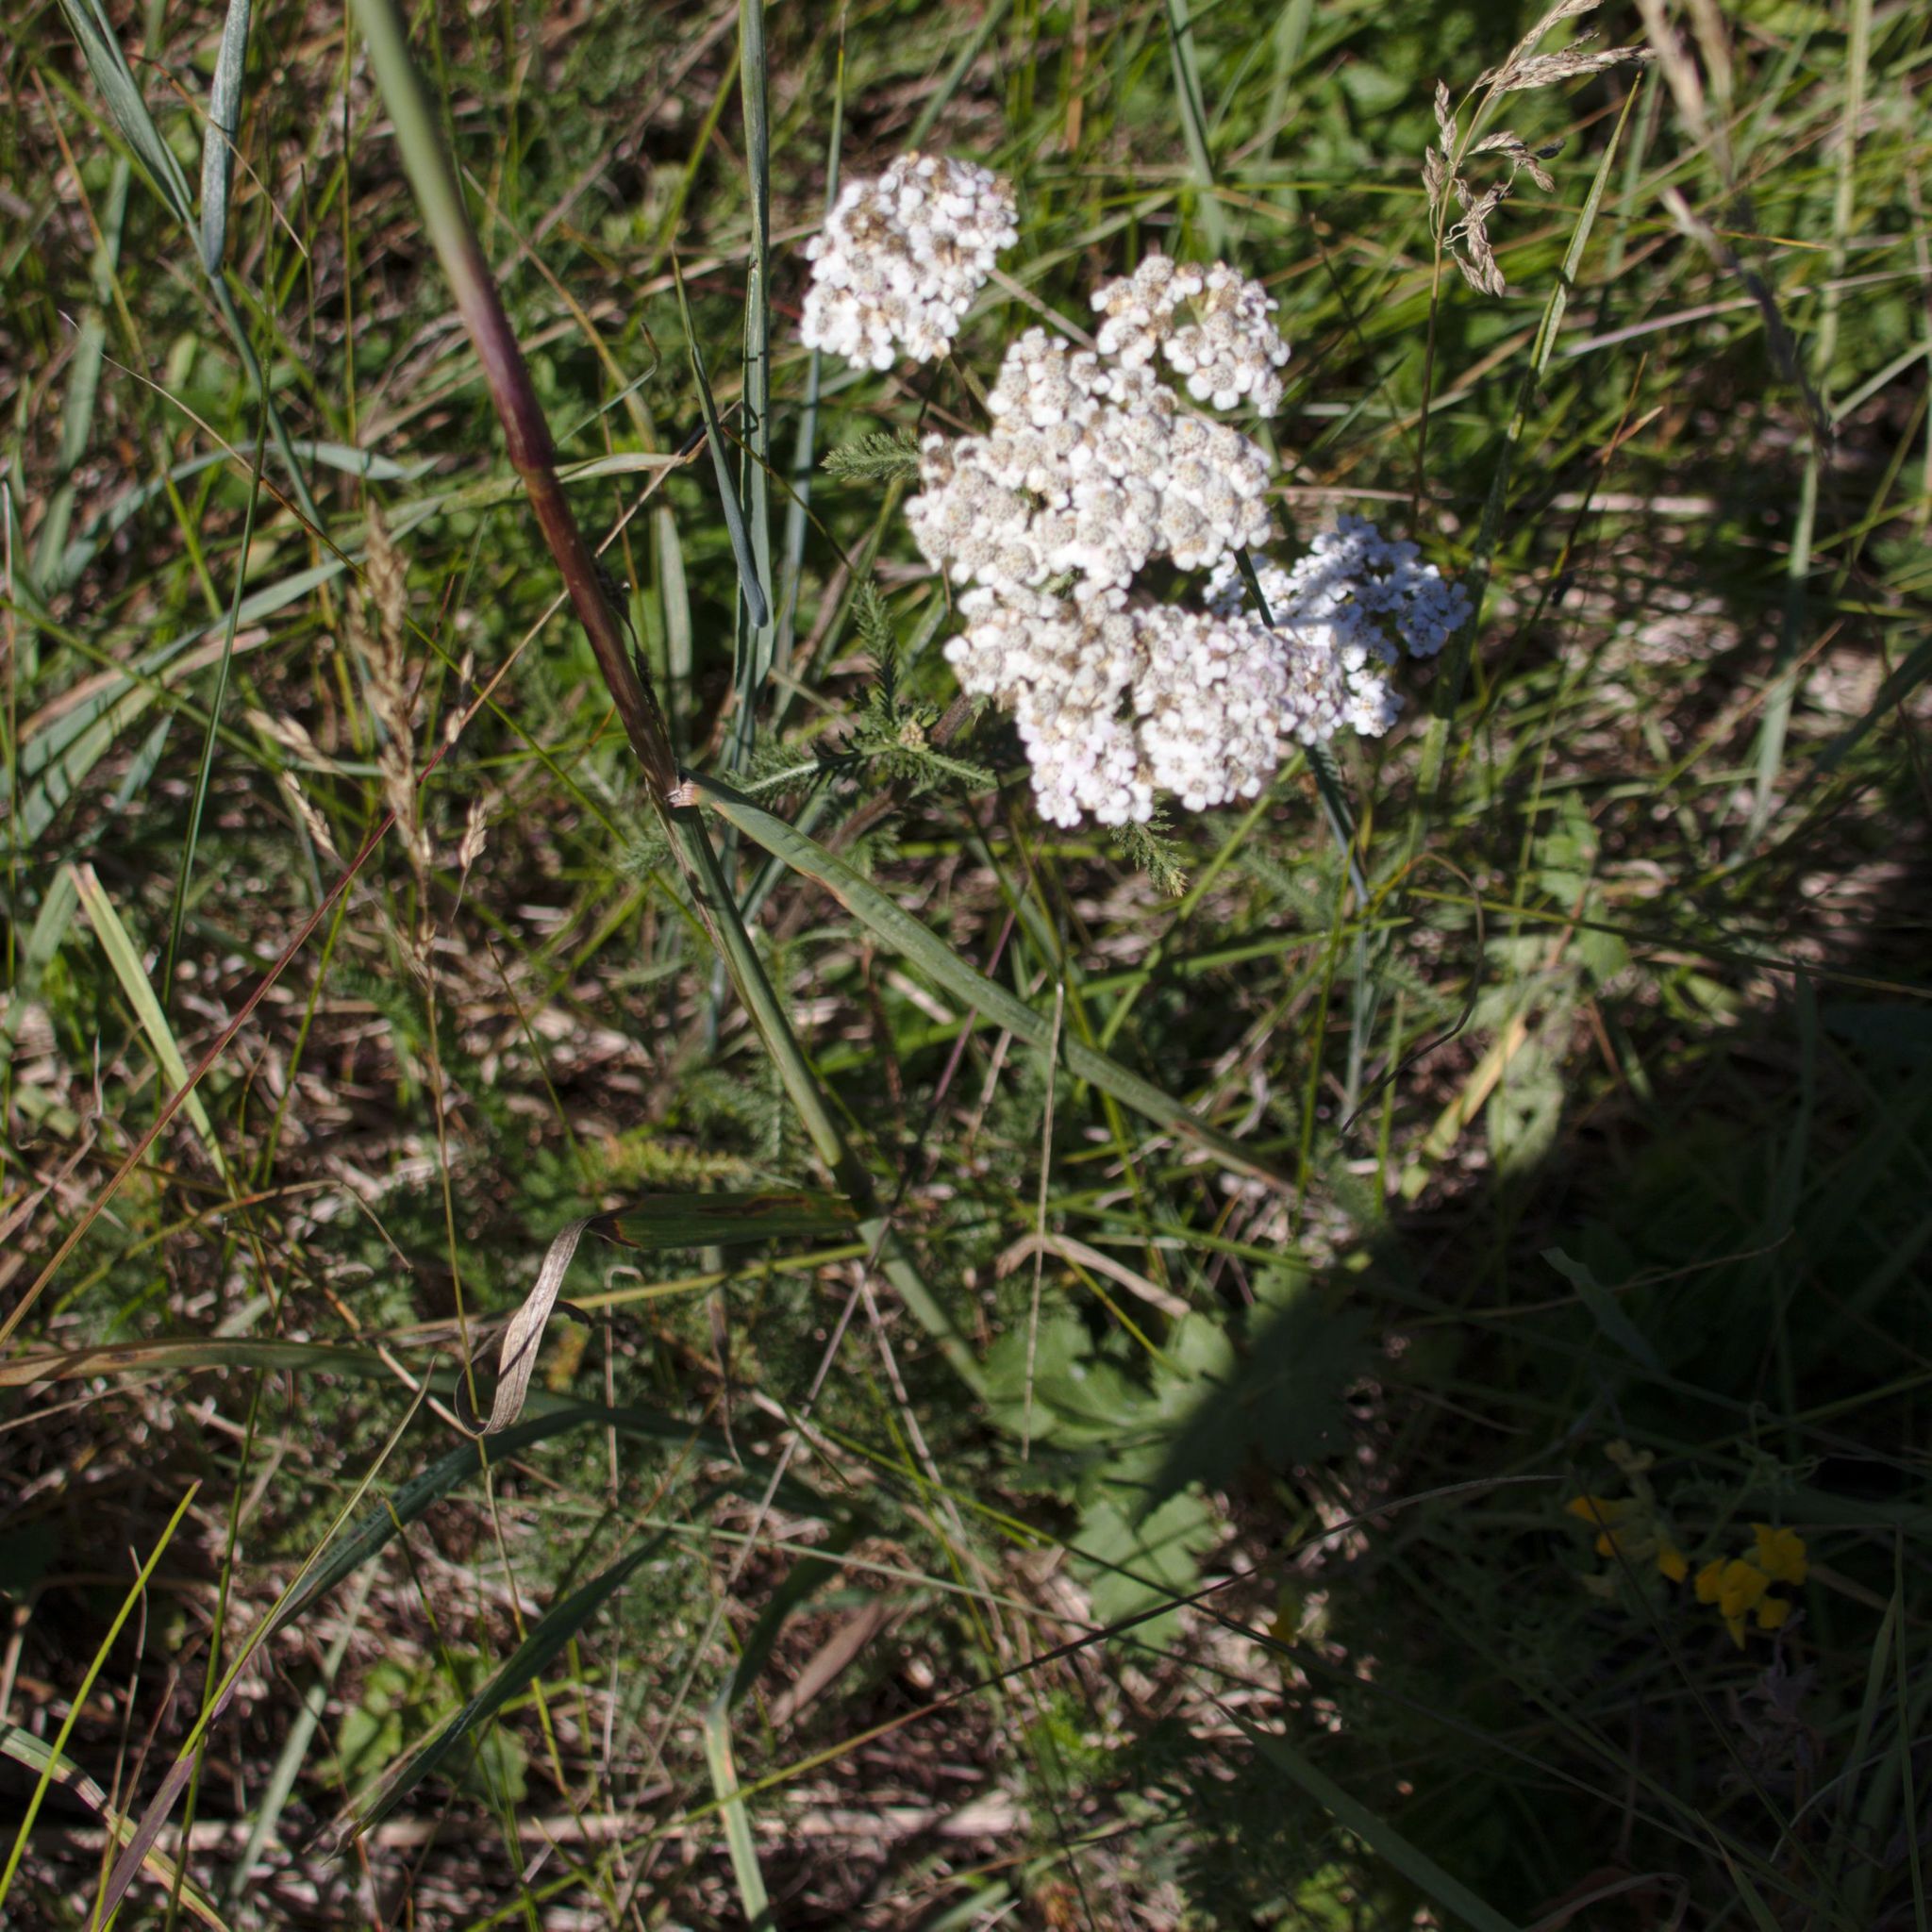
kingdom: Plantae
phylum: Tracheophyta
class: Magnoliopsida
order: Asterales
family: Asteraceae
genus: Achillea
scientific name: Achillea millefolium
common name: Yarrow
